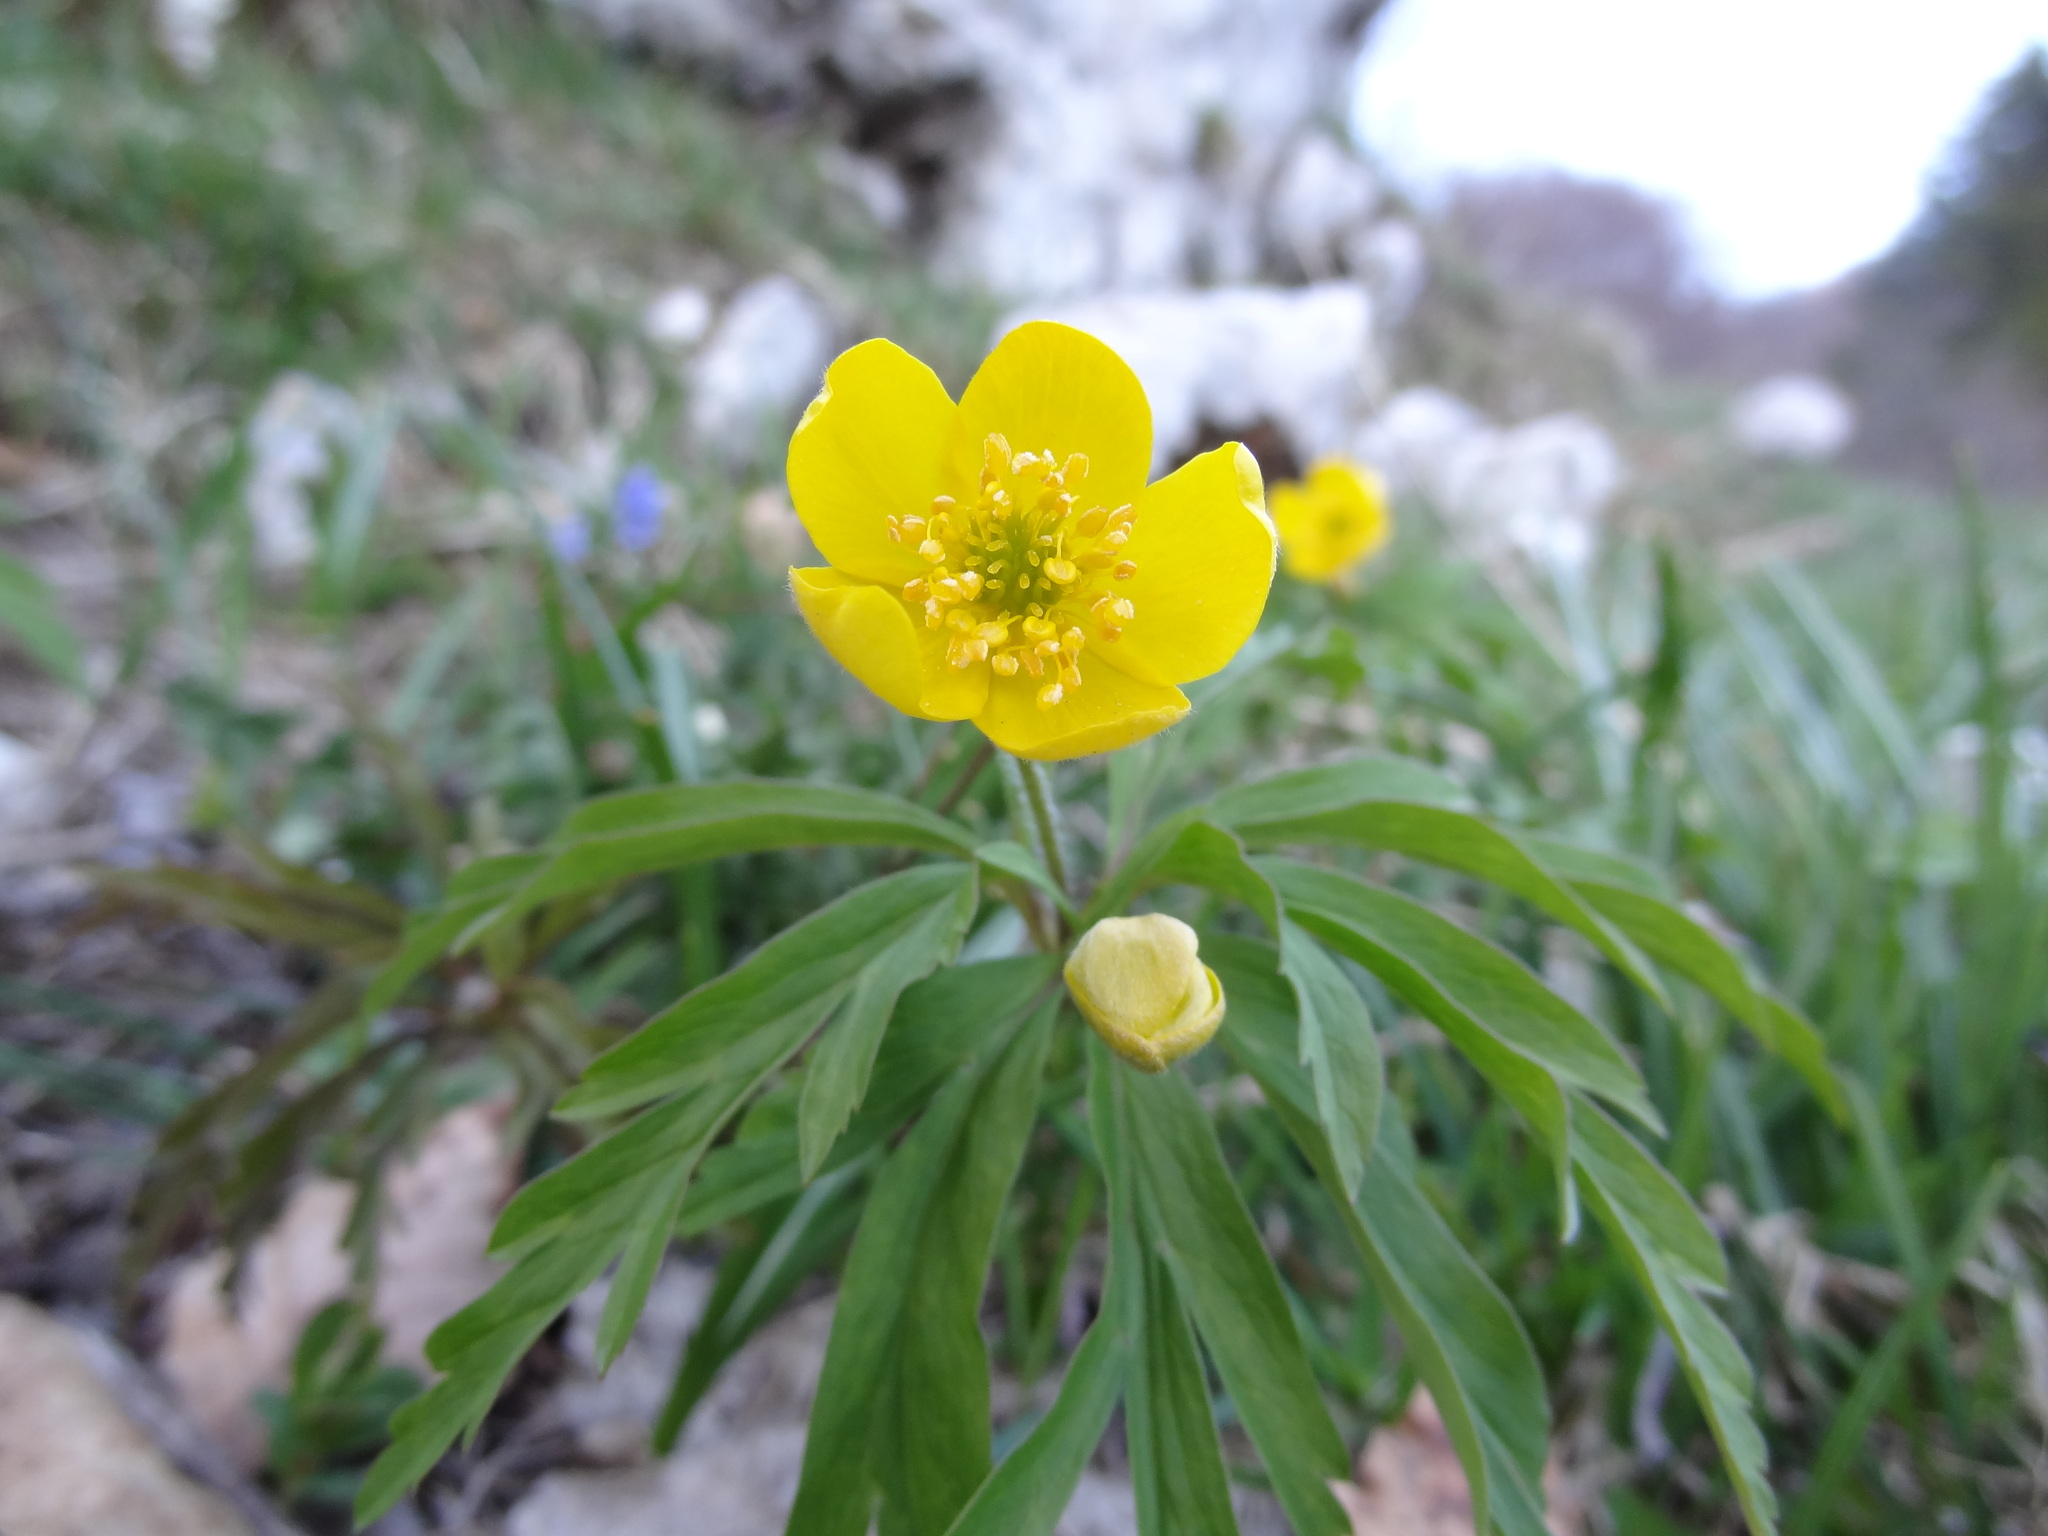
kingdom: Plantae
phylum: Tracheophyta
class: Magnoliopsida
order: Ranunculales
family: Ranunculaceae
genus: Anemone
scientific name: Anemone ranunculoides
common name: Yellow anemone
